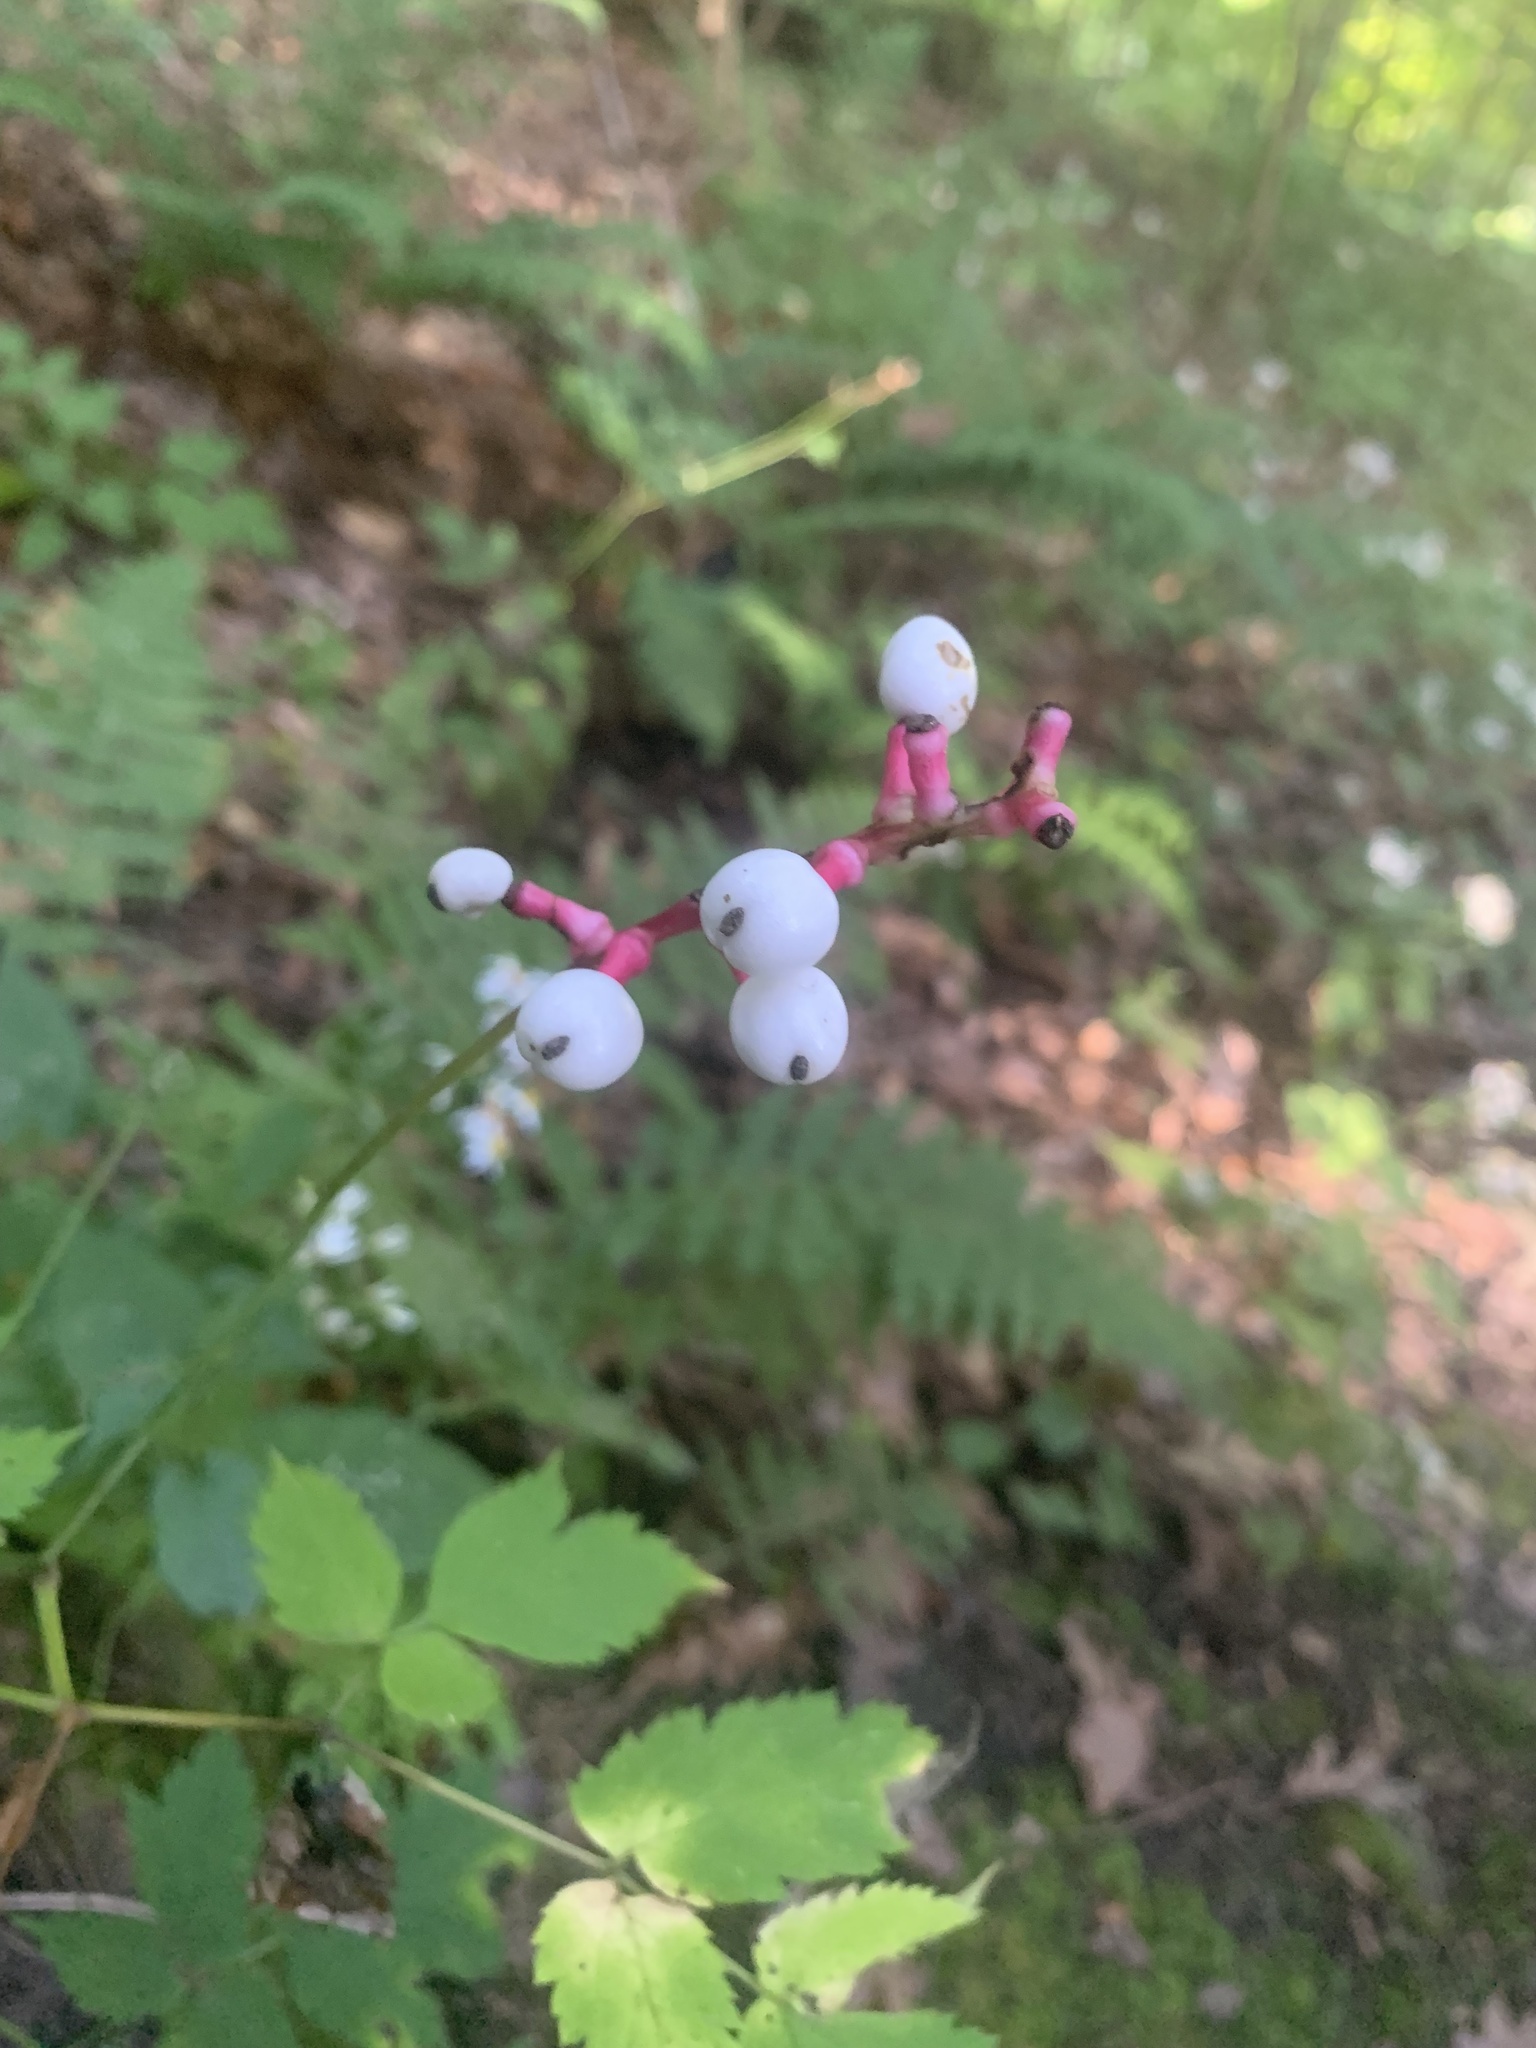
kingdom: Plantae
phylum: Tracheophyta
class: Magnoliopsida
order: Ranunculales
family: Ranunculaceae
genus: Actaea
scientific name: Actaea pachypoda
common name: Doll's-eyes
